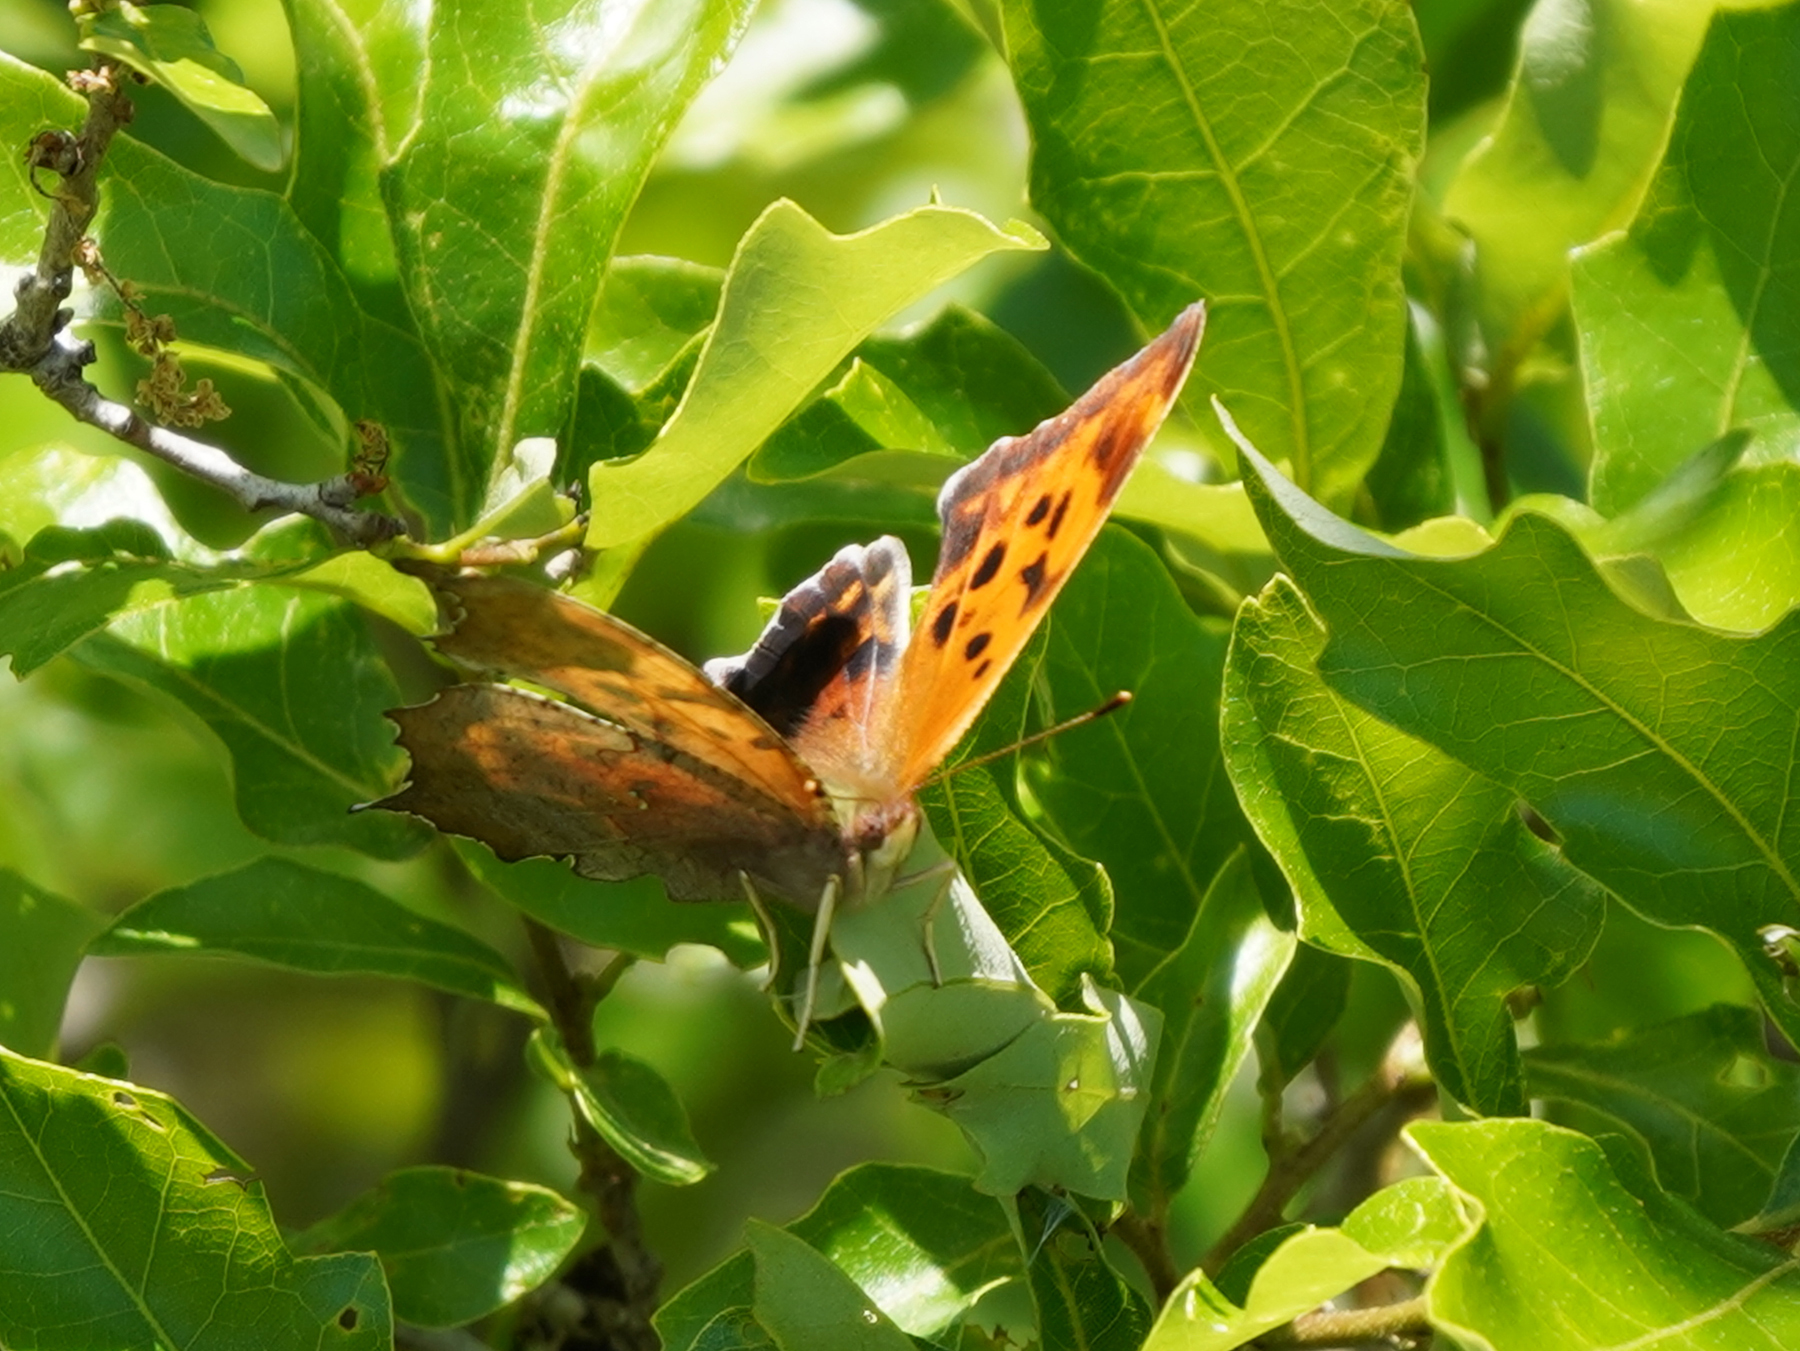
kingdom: Animalia
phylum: Arthropoda
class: Insecta
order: Lepidoptera
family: Nymphalidae
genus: Polygonia
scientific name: Polygonia interrogationis
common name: Question mark
